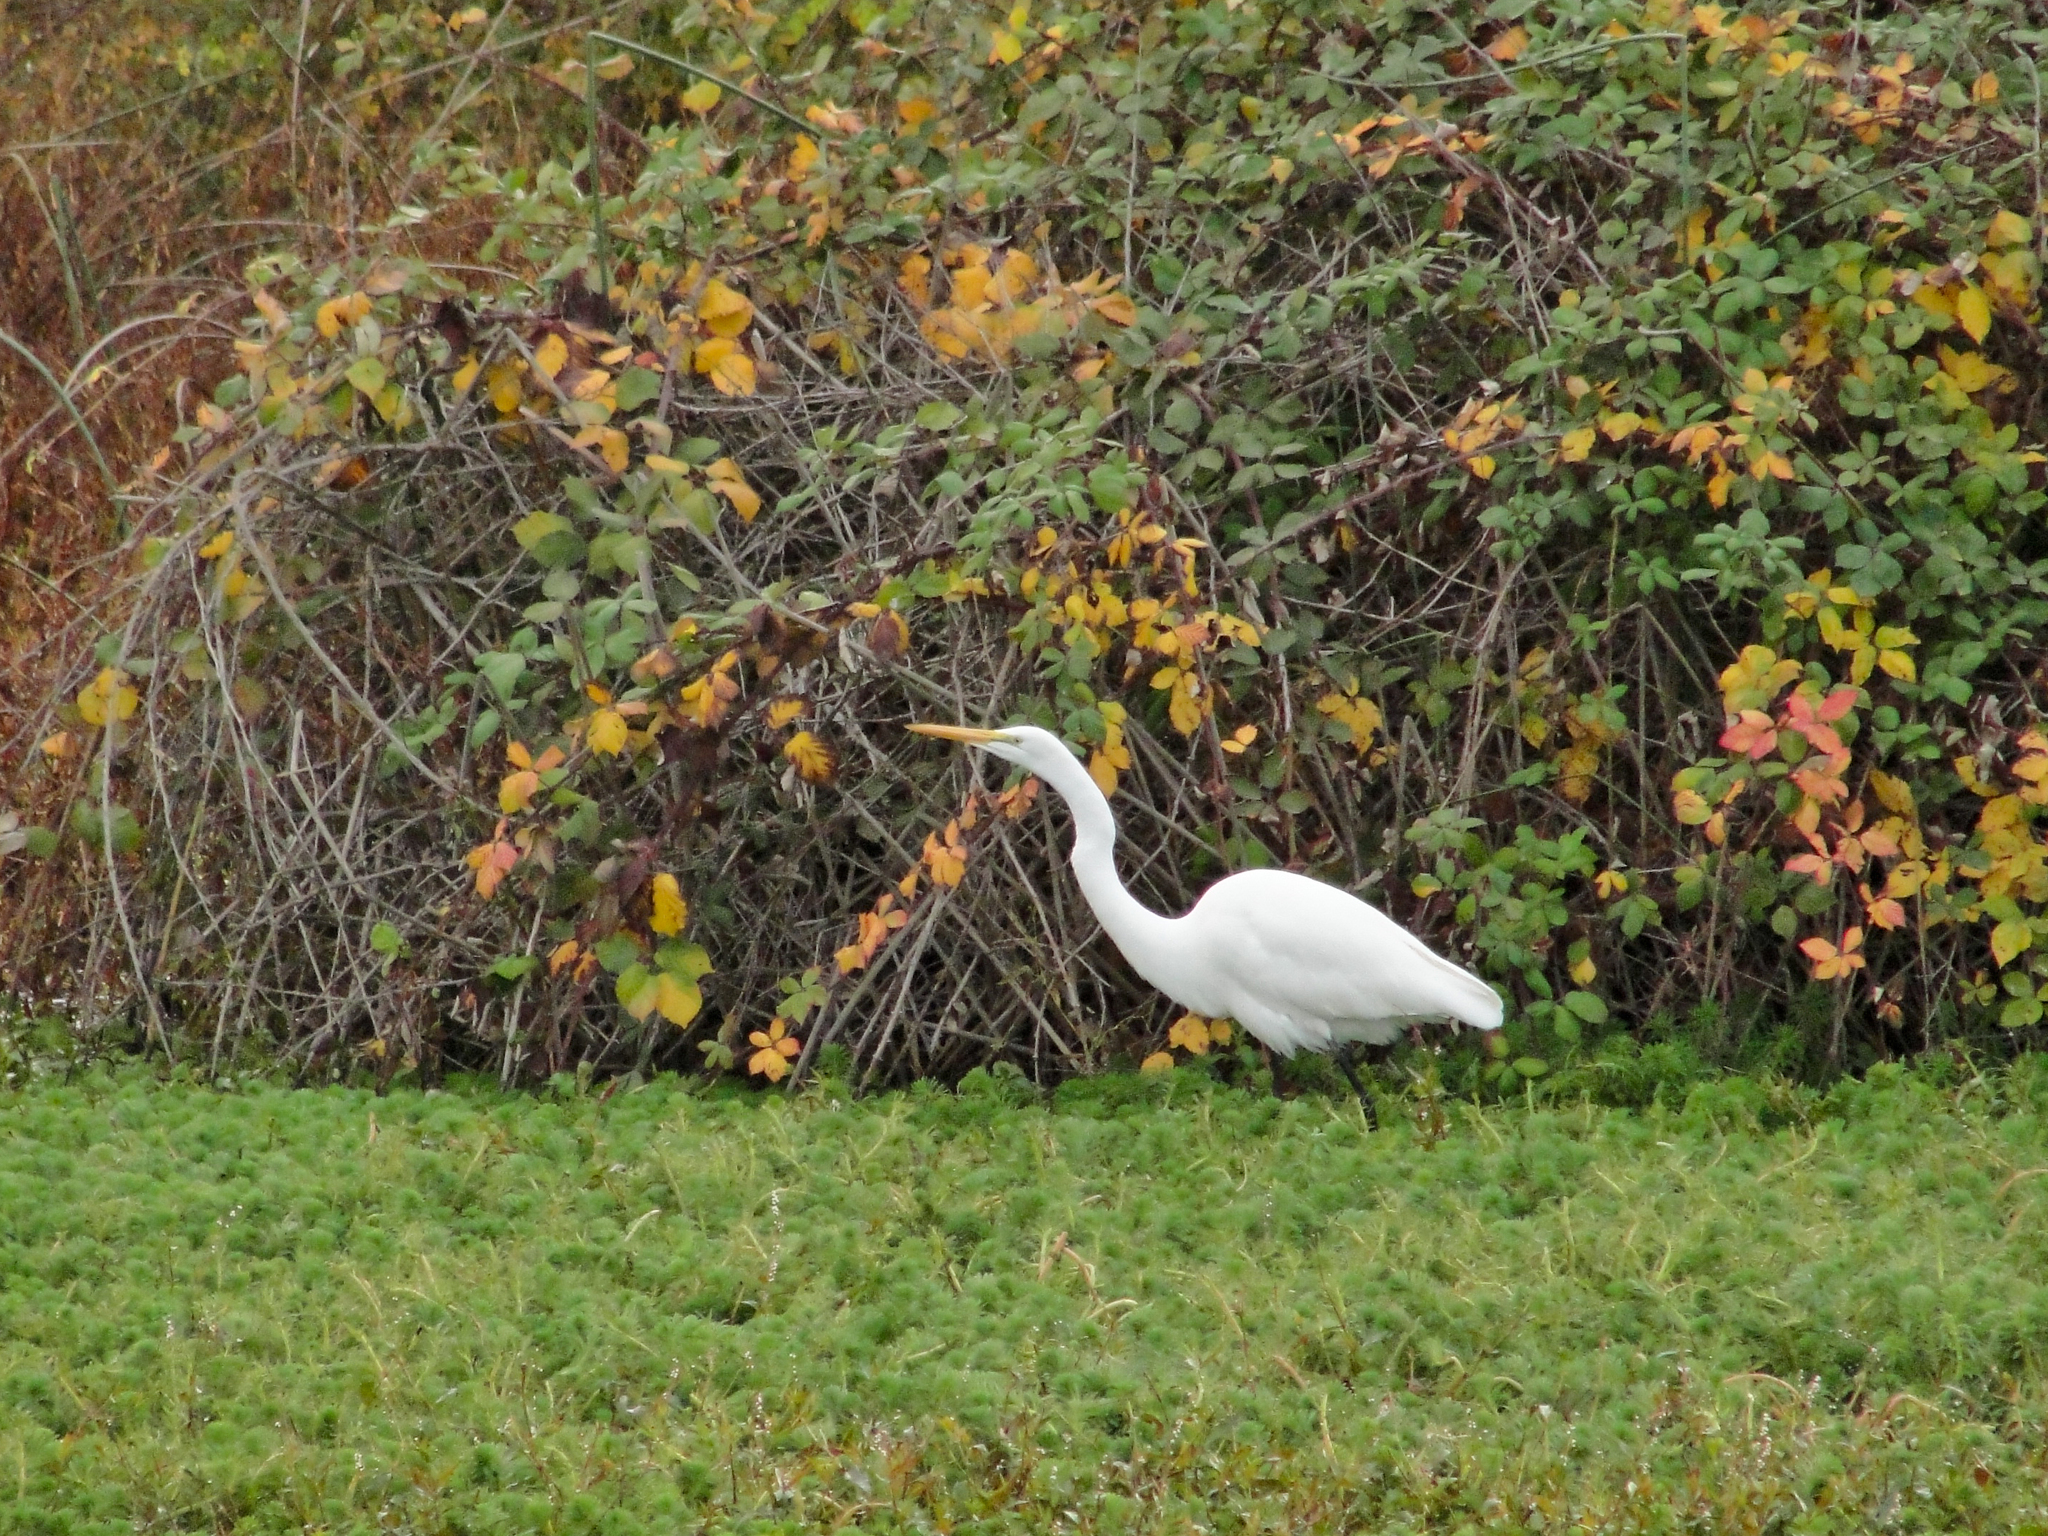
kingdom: Animalia
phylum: Chordata
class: Aves
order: Pelecaniformes
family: Ardeidae
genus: Ardea
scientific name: Ardea alba
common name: Great egret
